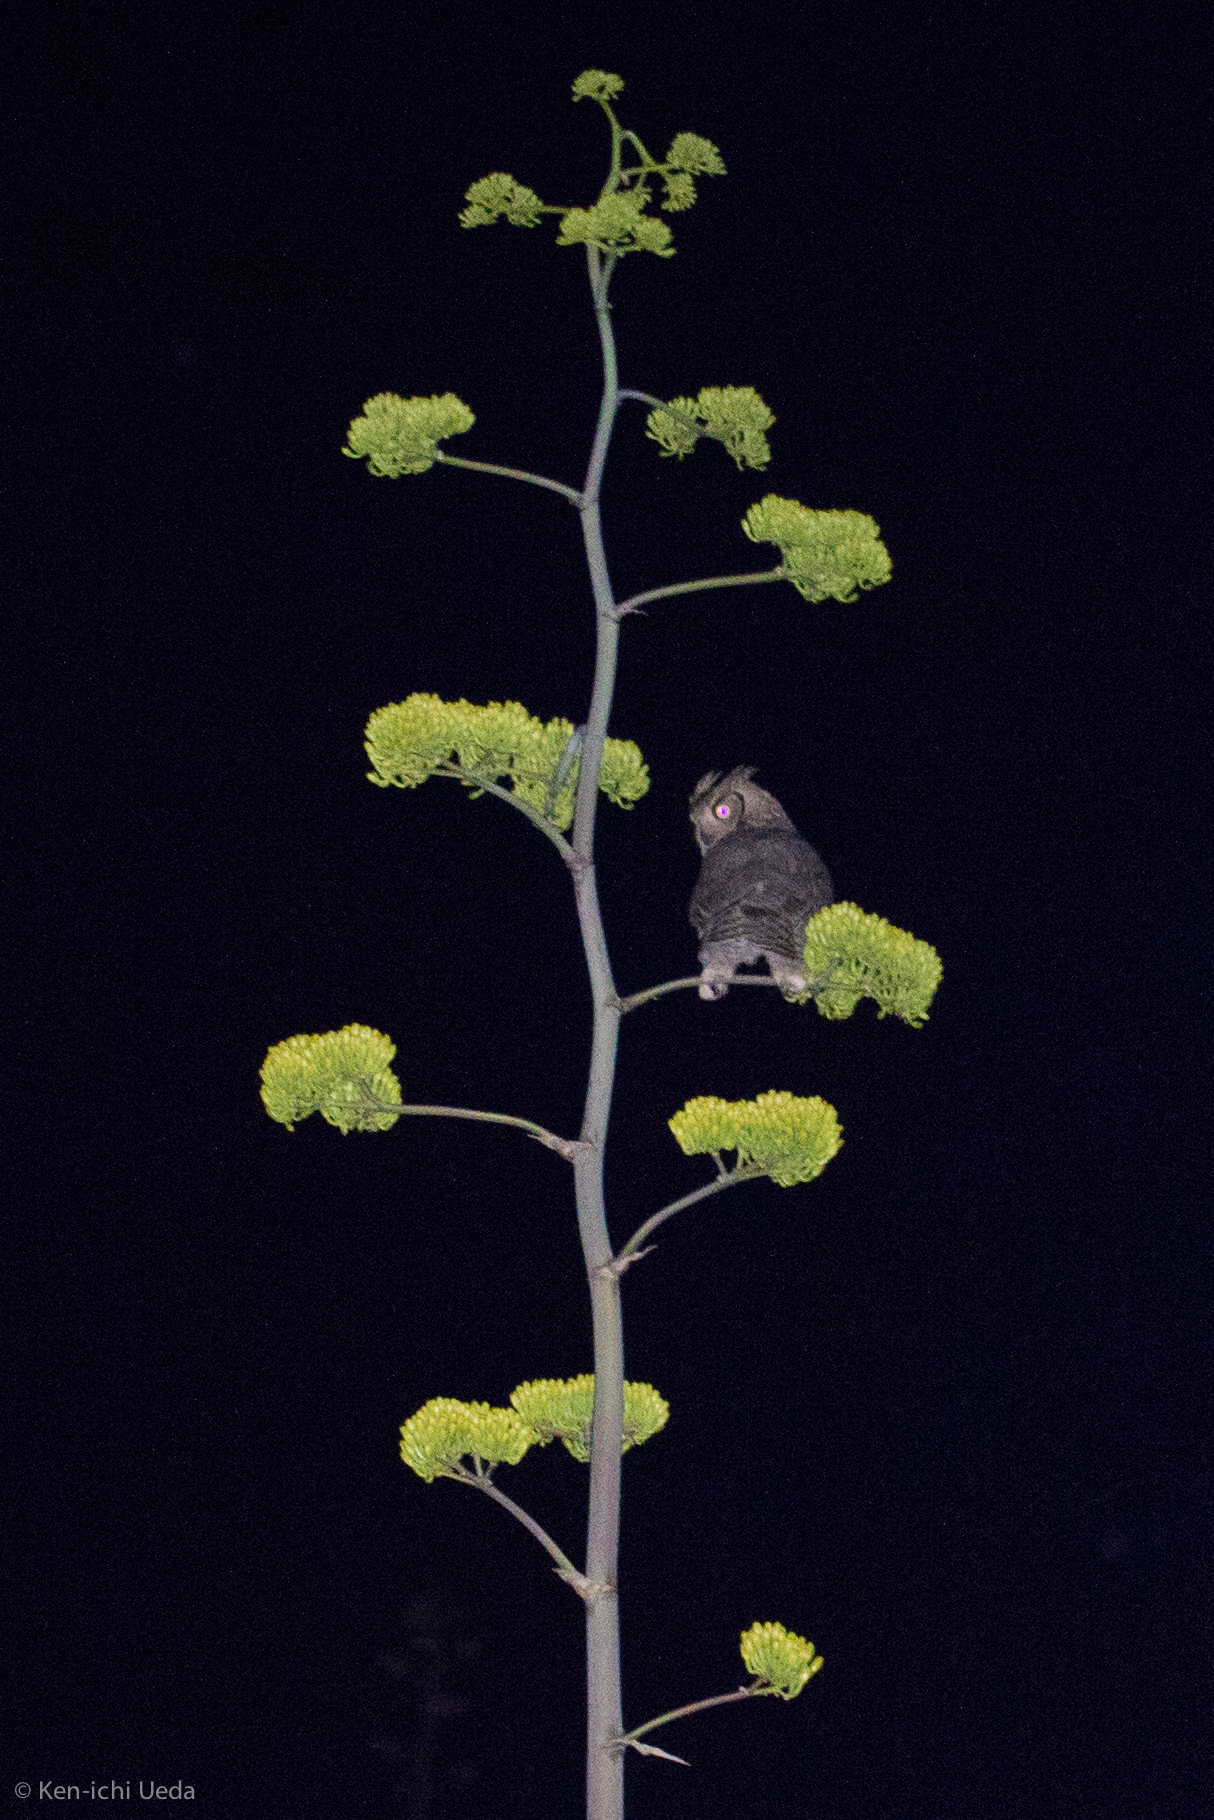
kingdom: Animalia
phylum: Chordata
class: Aves
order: Strigiformes
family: Strigidae
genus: Bubo
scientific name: Bubo virginianus
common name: Great horned owl
